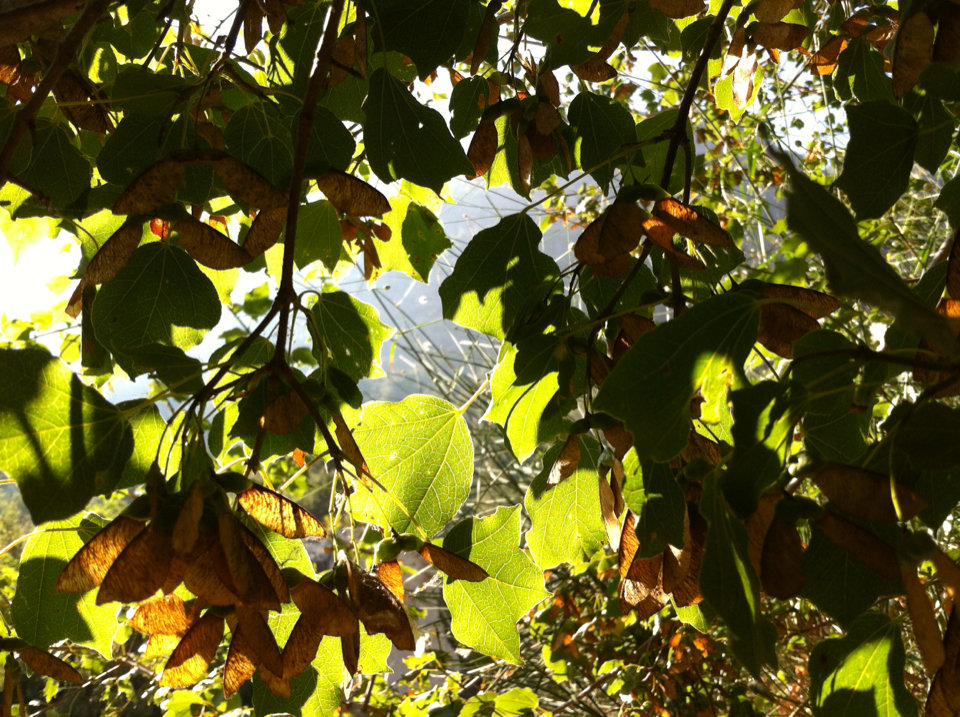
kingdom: Plantae
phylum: Tracheophyta
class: Magnoliopsida
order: Sapindales
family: Sapindaceae
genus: Acer
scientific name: Acer obtusifolium
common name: Cyprus maple
